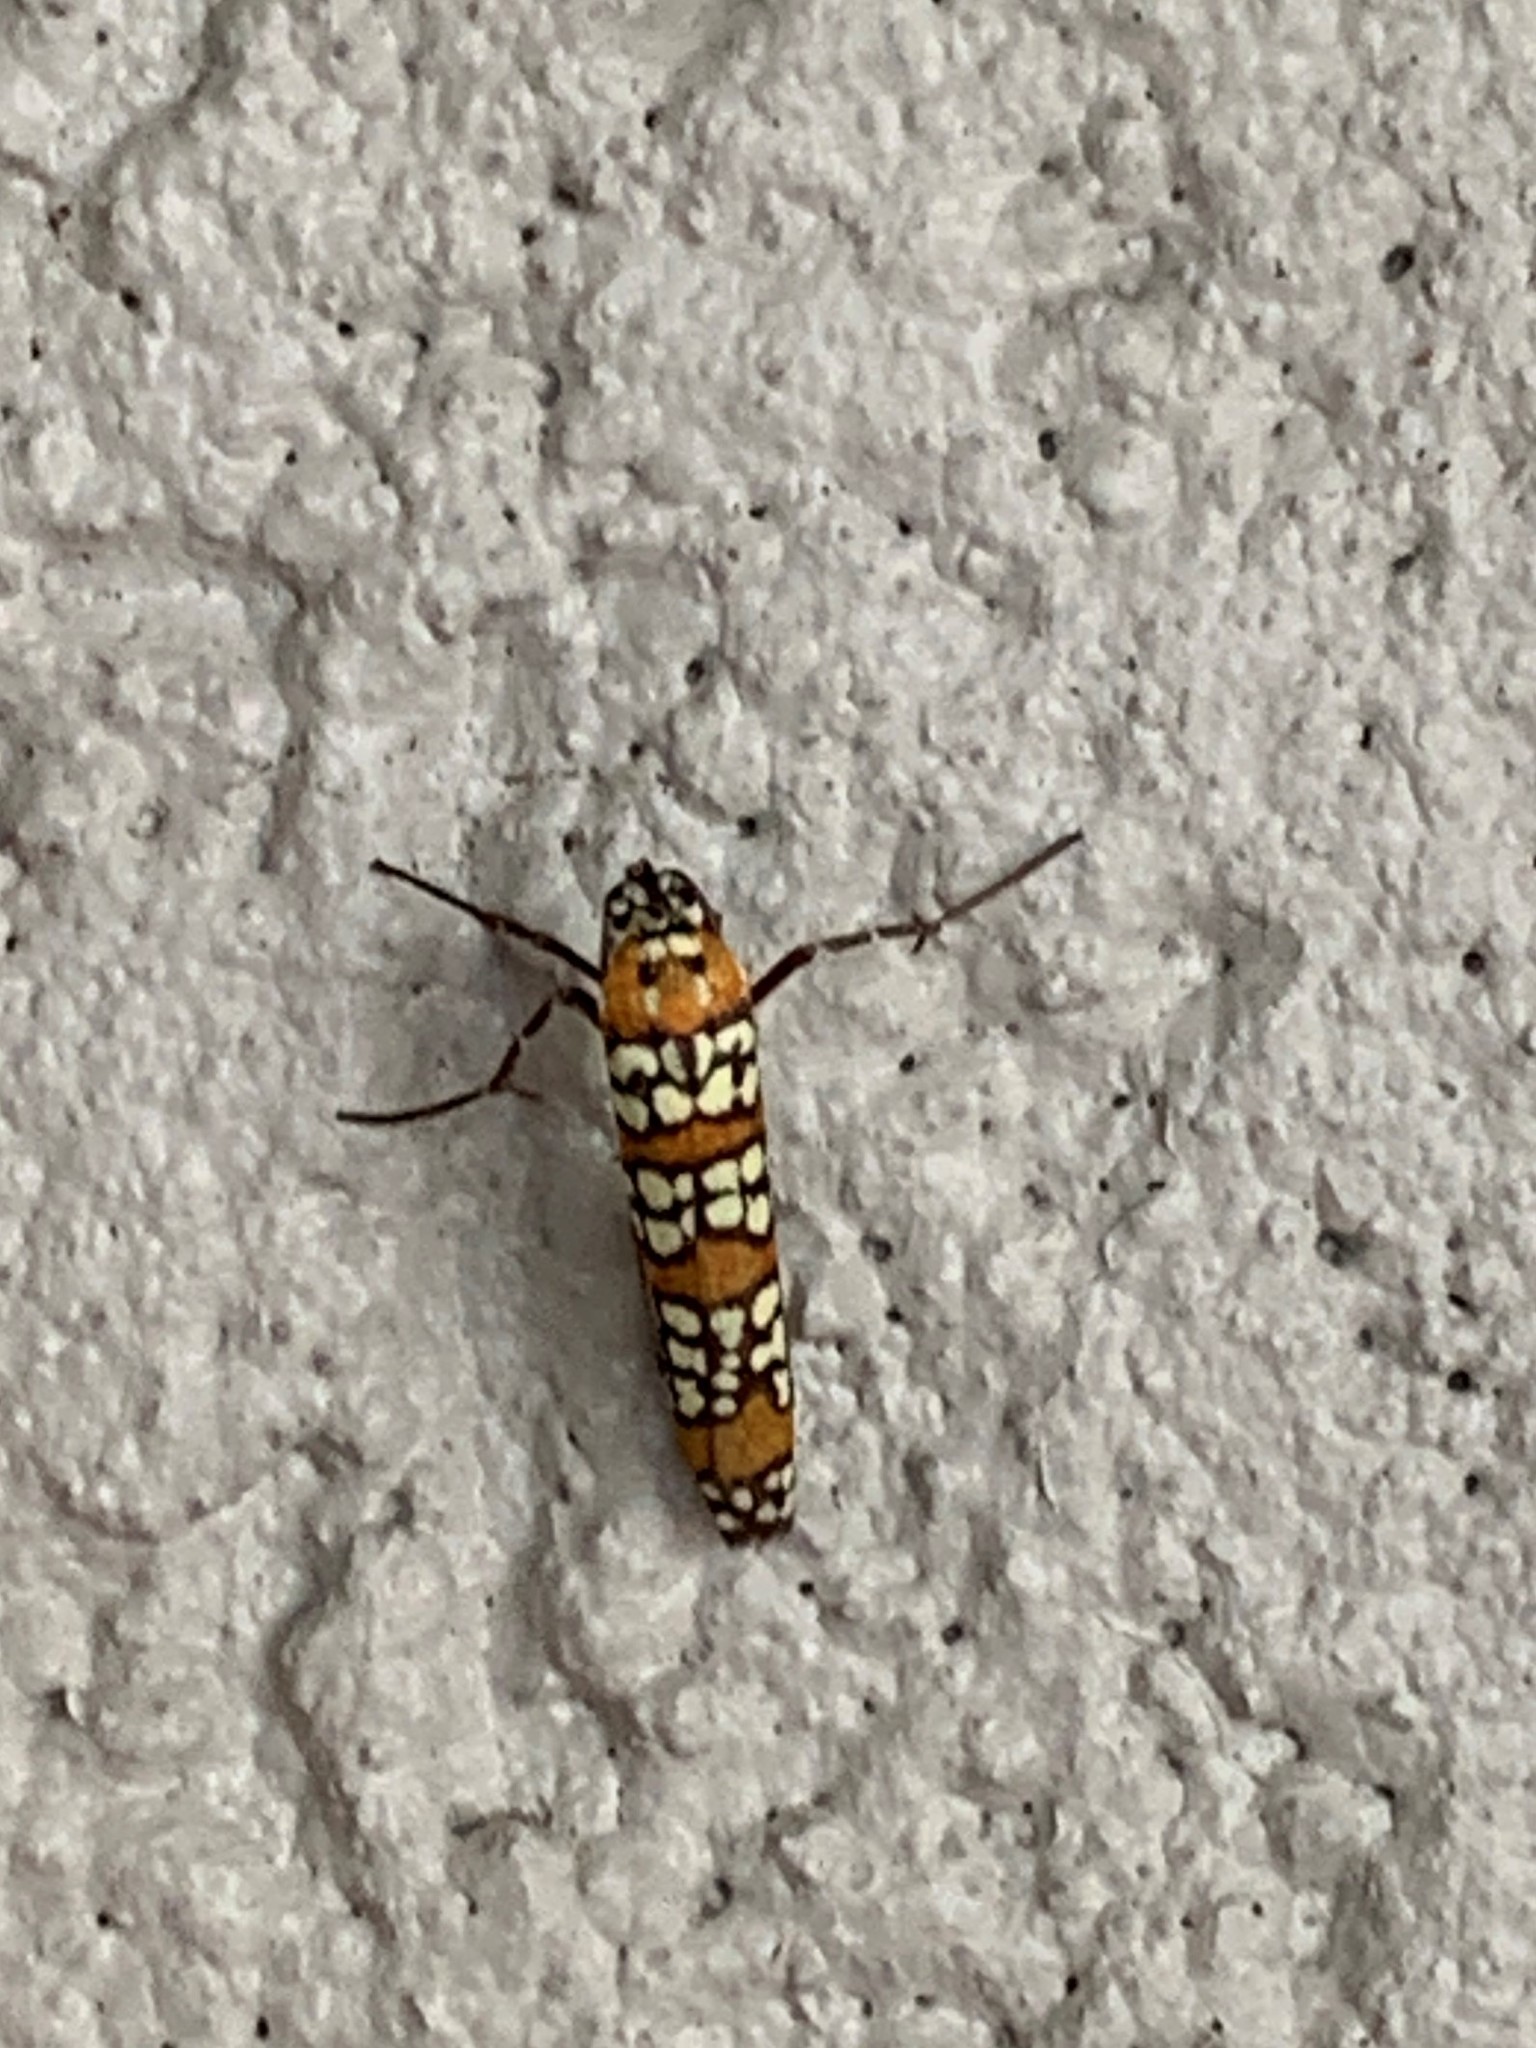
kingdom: Animalia
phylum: Arthropoda
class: Insecta
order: Lepidoptera
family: Attevidae
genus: Atteva
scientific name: Atteva punctella
